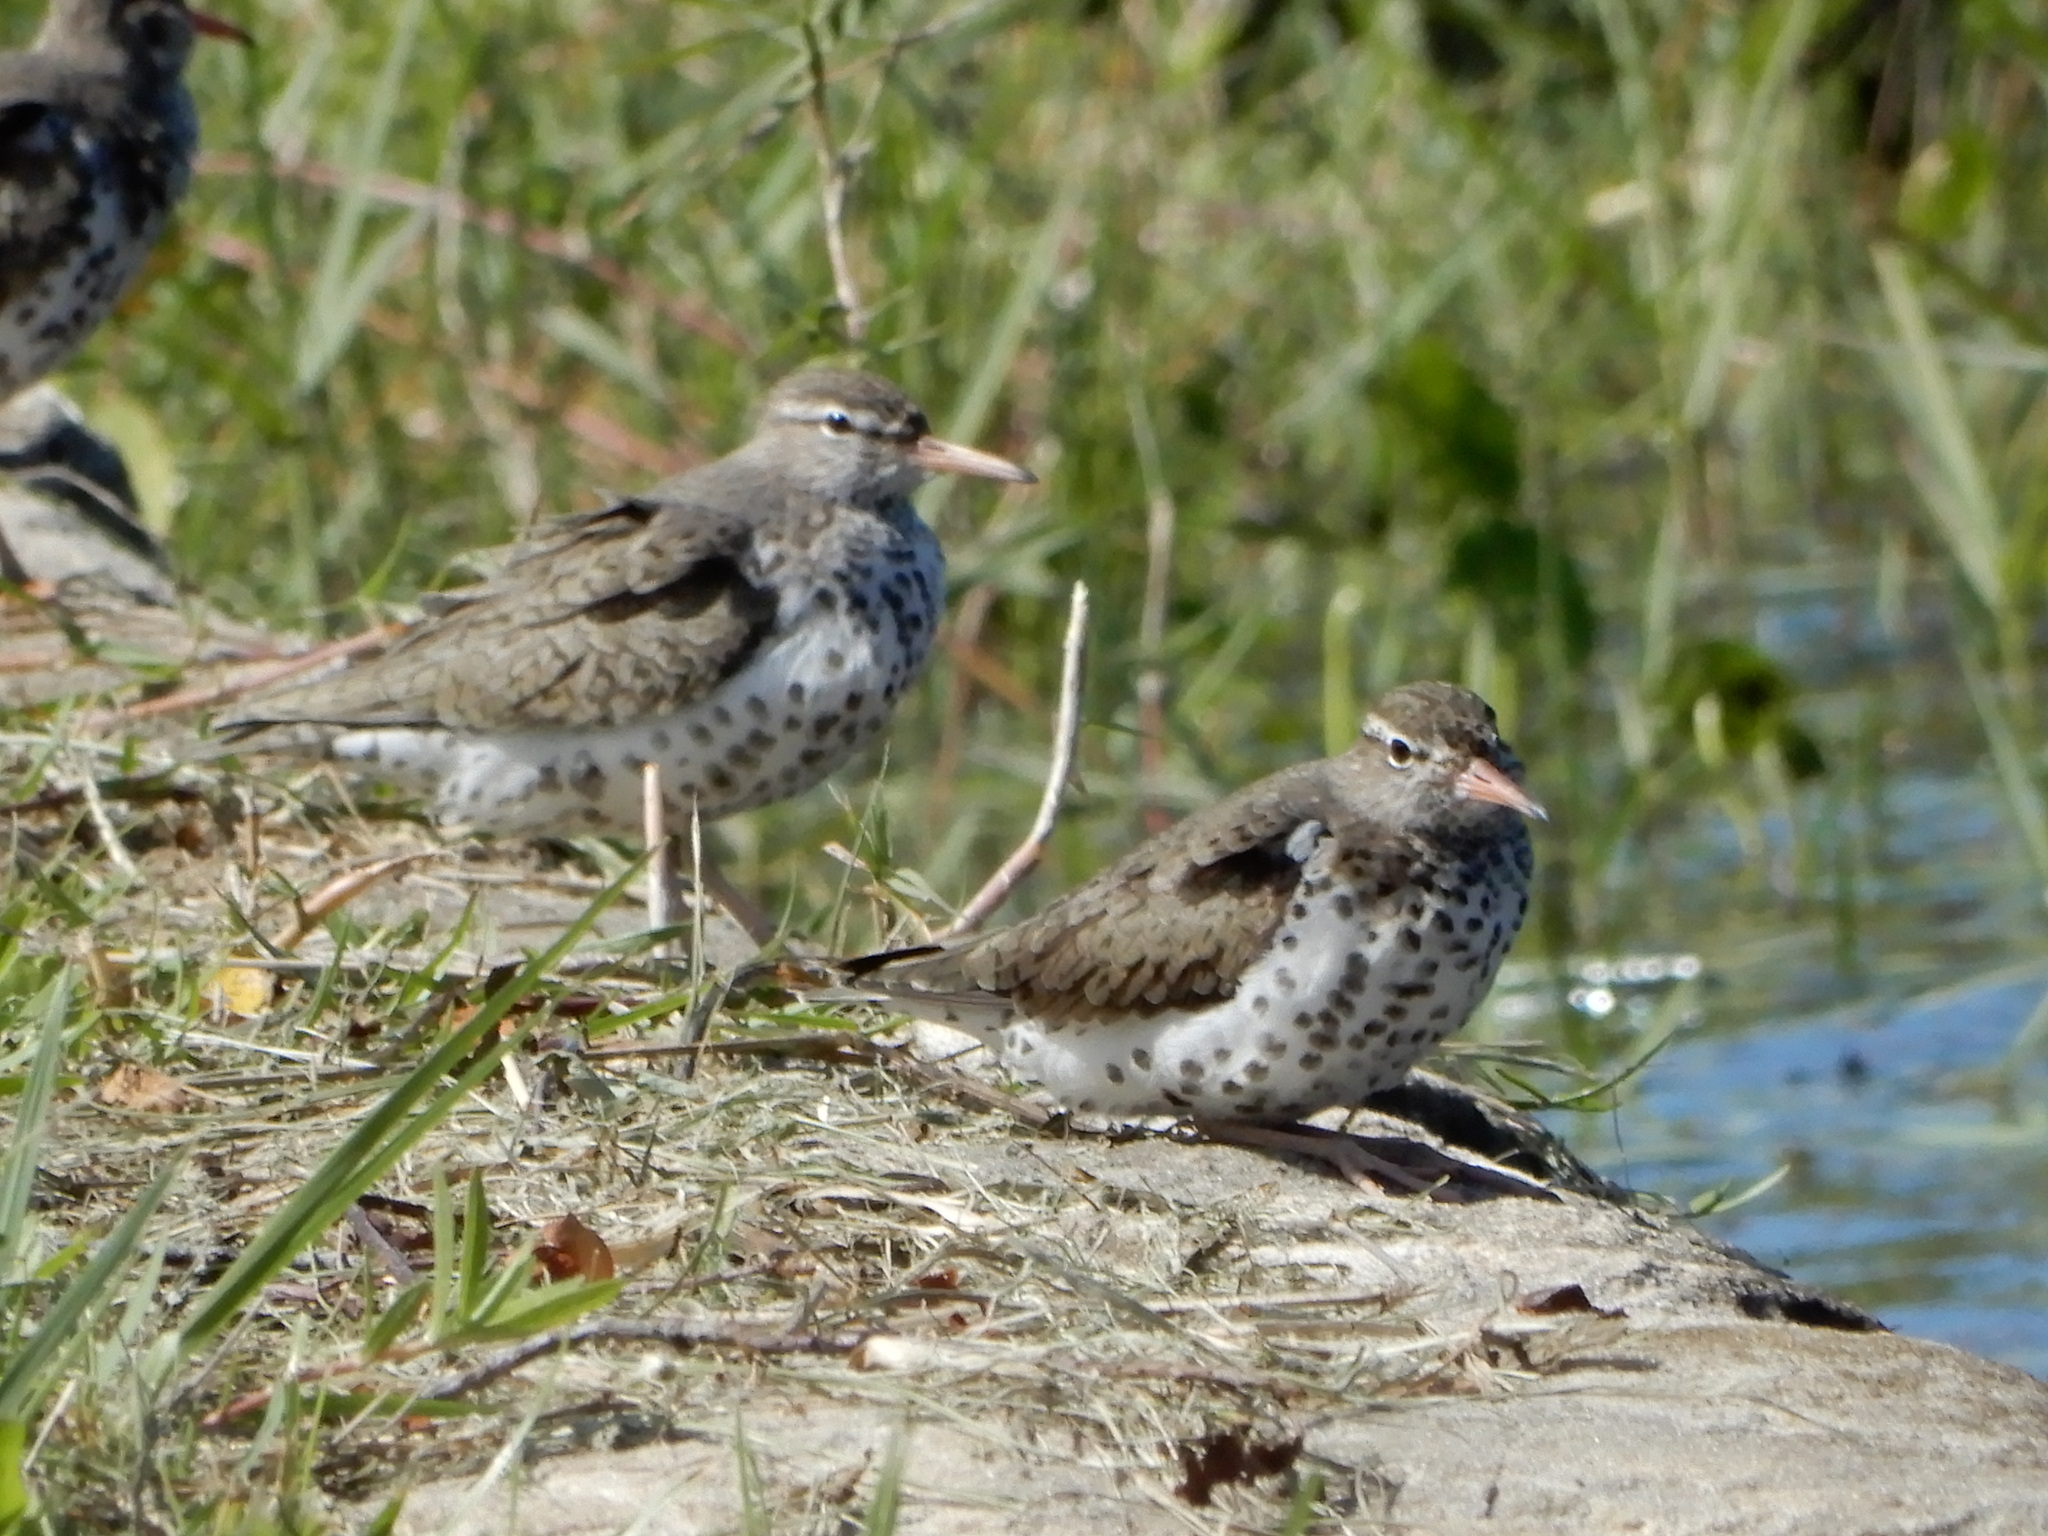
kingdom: Animalia
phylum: Chordata
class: Aves
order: Charadriiformes
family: Scolopacidae
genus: Actitis
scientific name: Actitis macularius
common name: Spotted sandpiper
